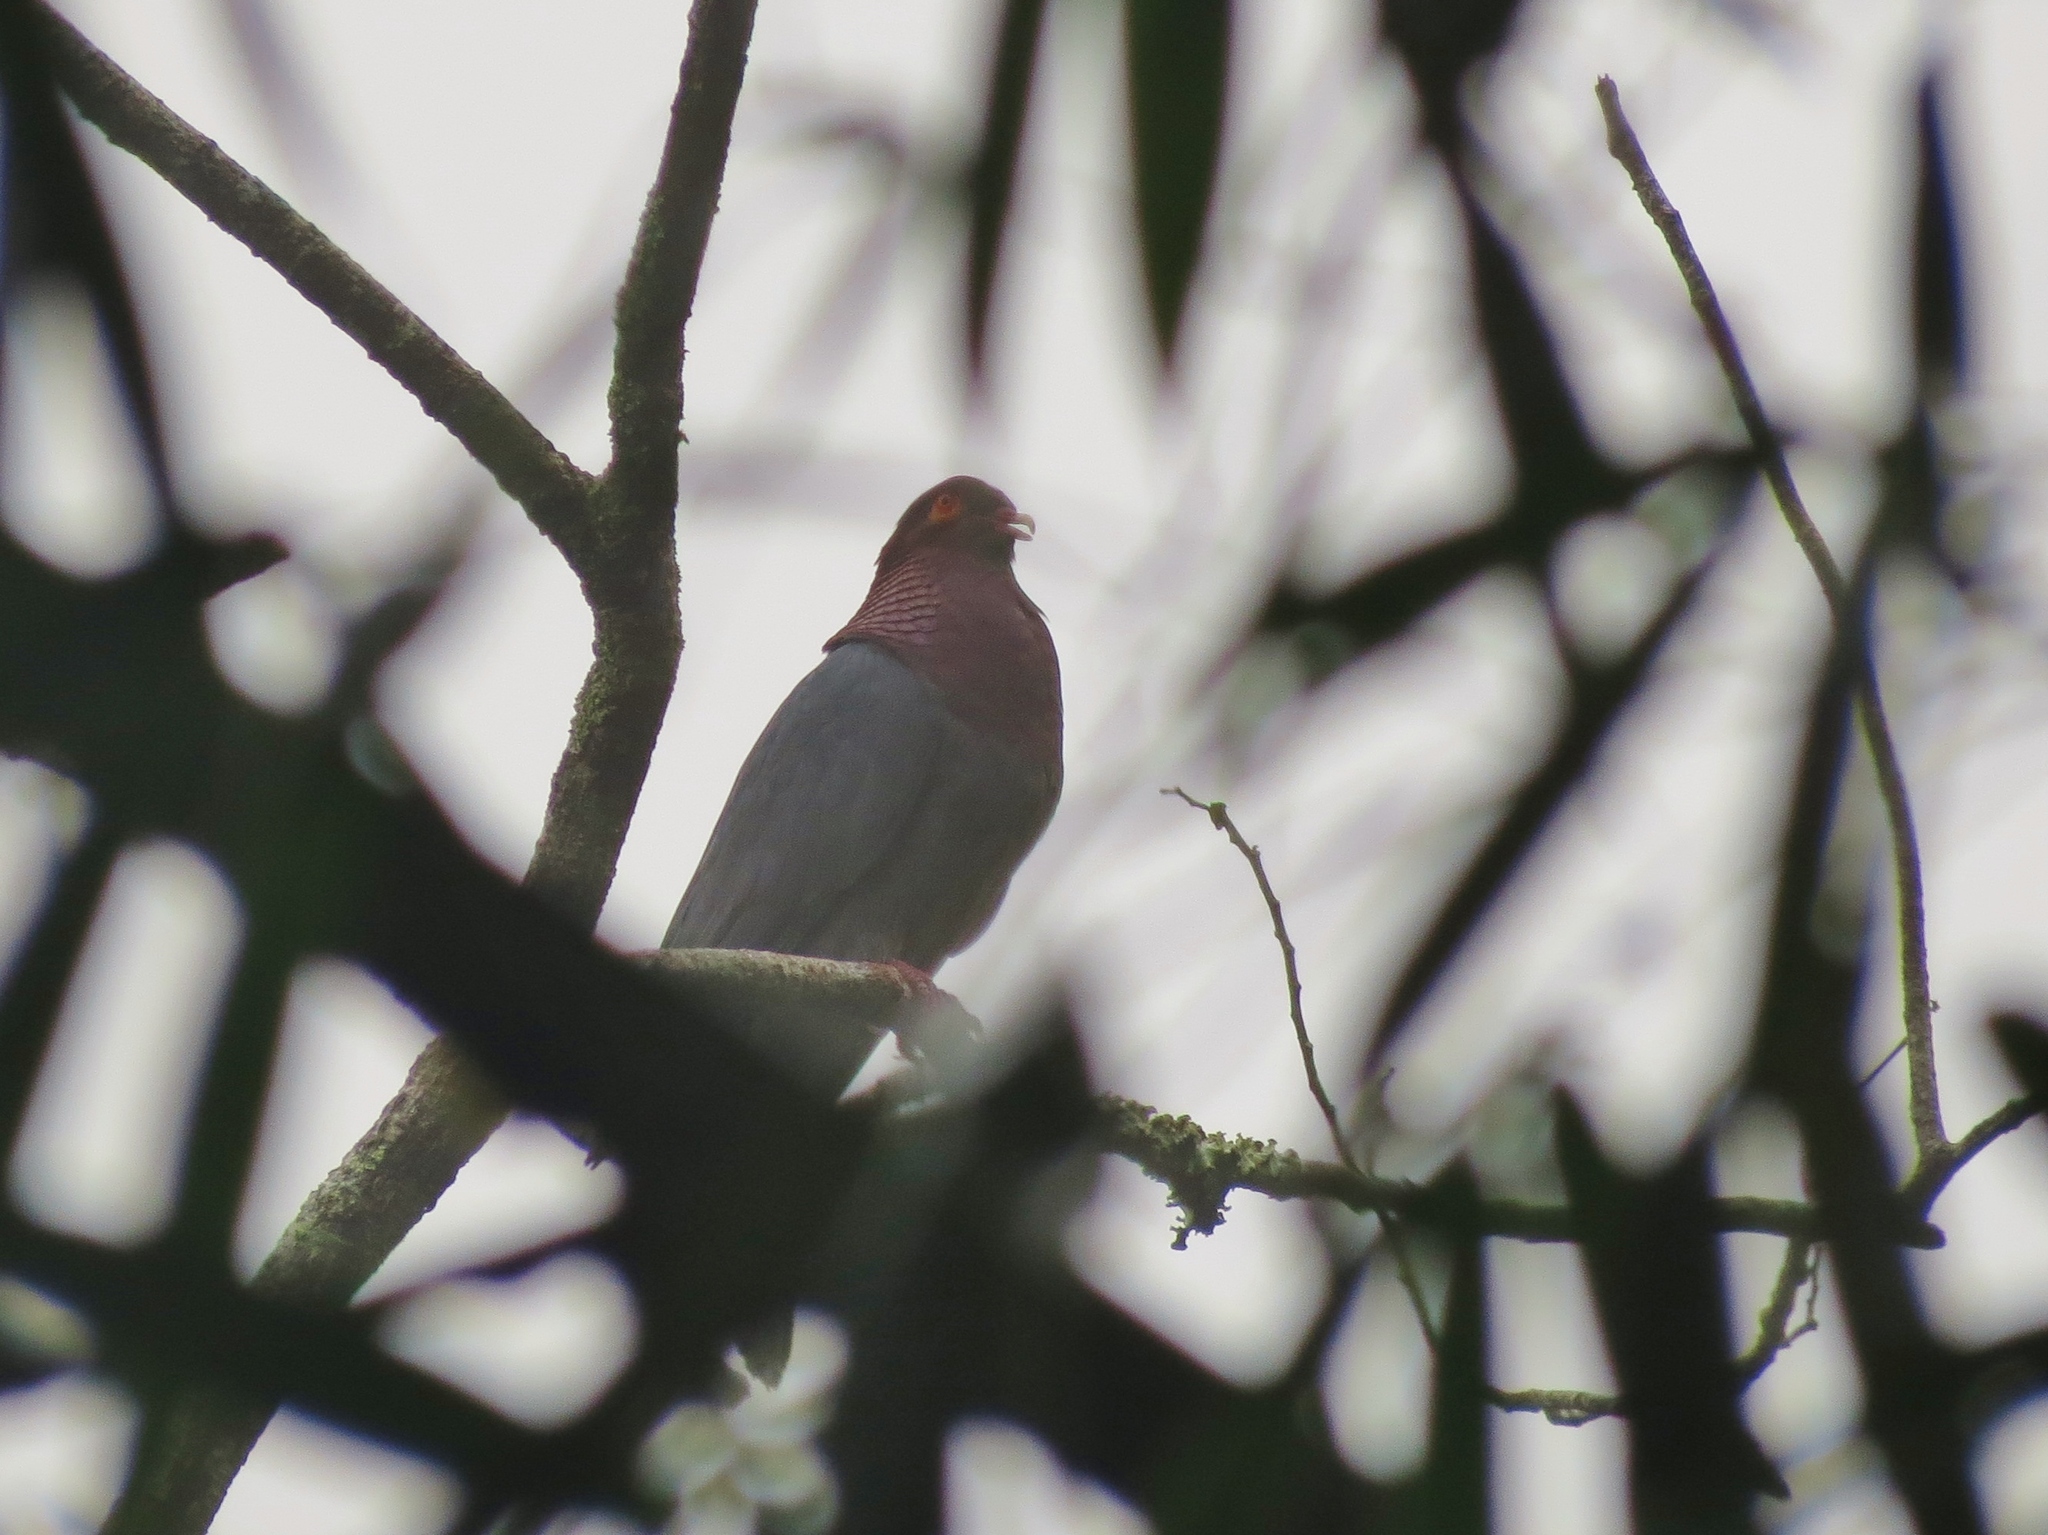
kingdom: Animalia
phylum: Chordata
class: Aves
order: Columbiformes
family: Columbidae
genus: Patagioenas
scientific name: Patagioenas squamosa
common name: Scaly-naped pigeon
